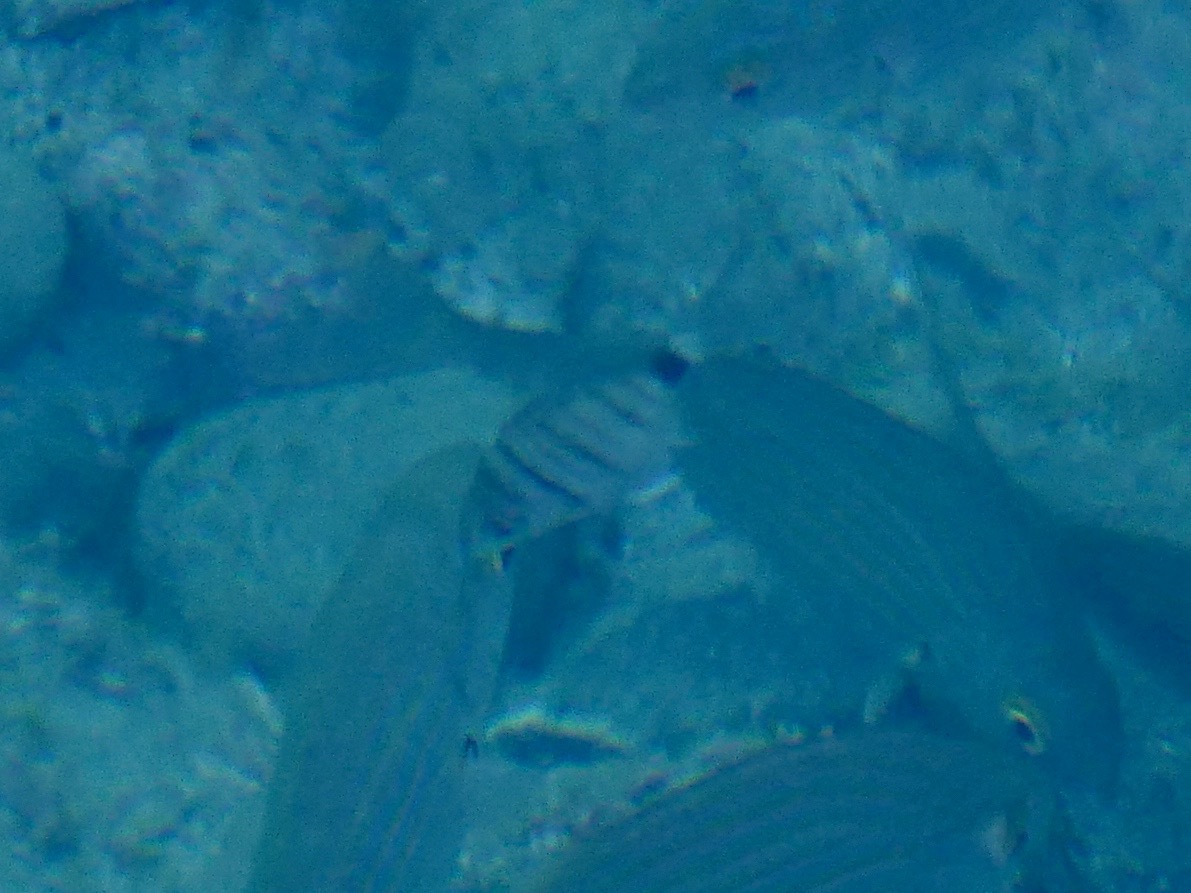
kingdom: Animalia
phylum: Chordata
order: Perciformes
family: Sparidae
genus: Diplodus
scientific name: Diplodus sargus
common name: White seabream
